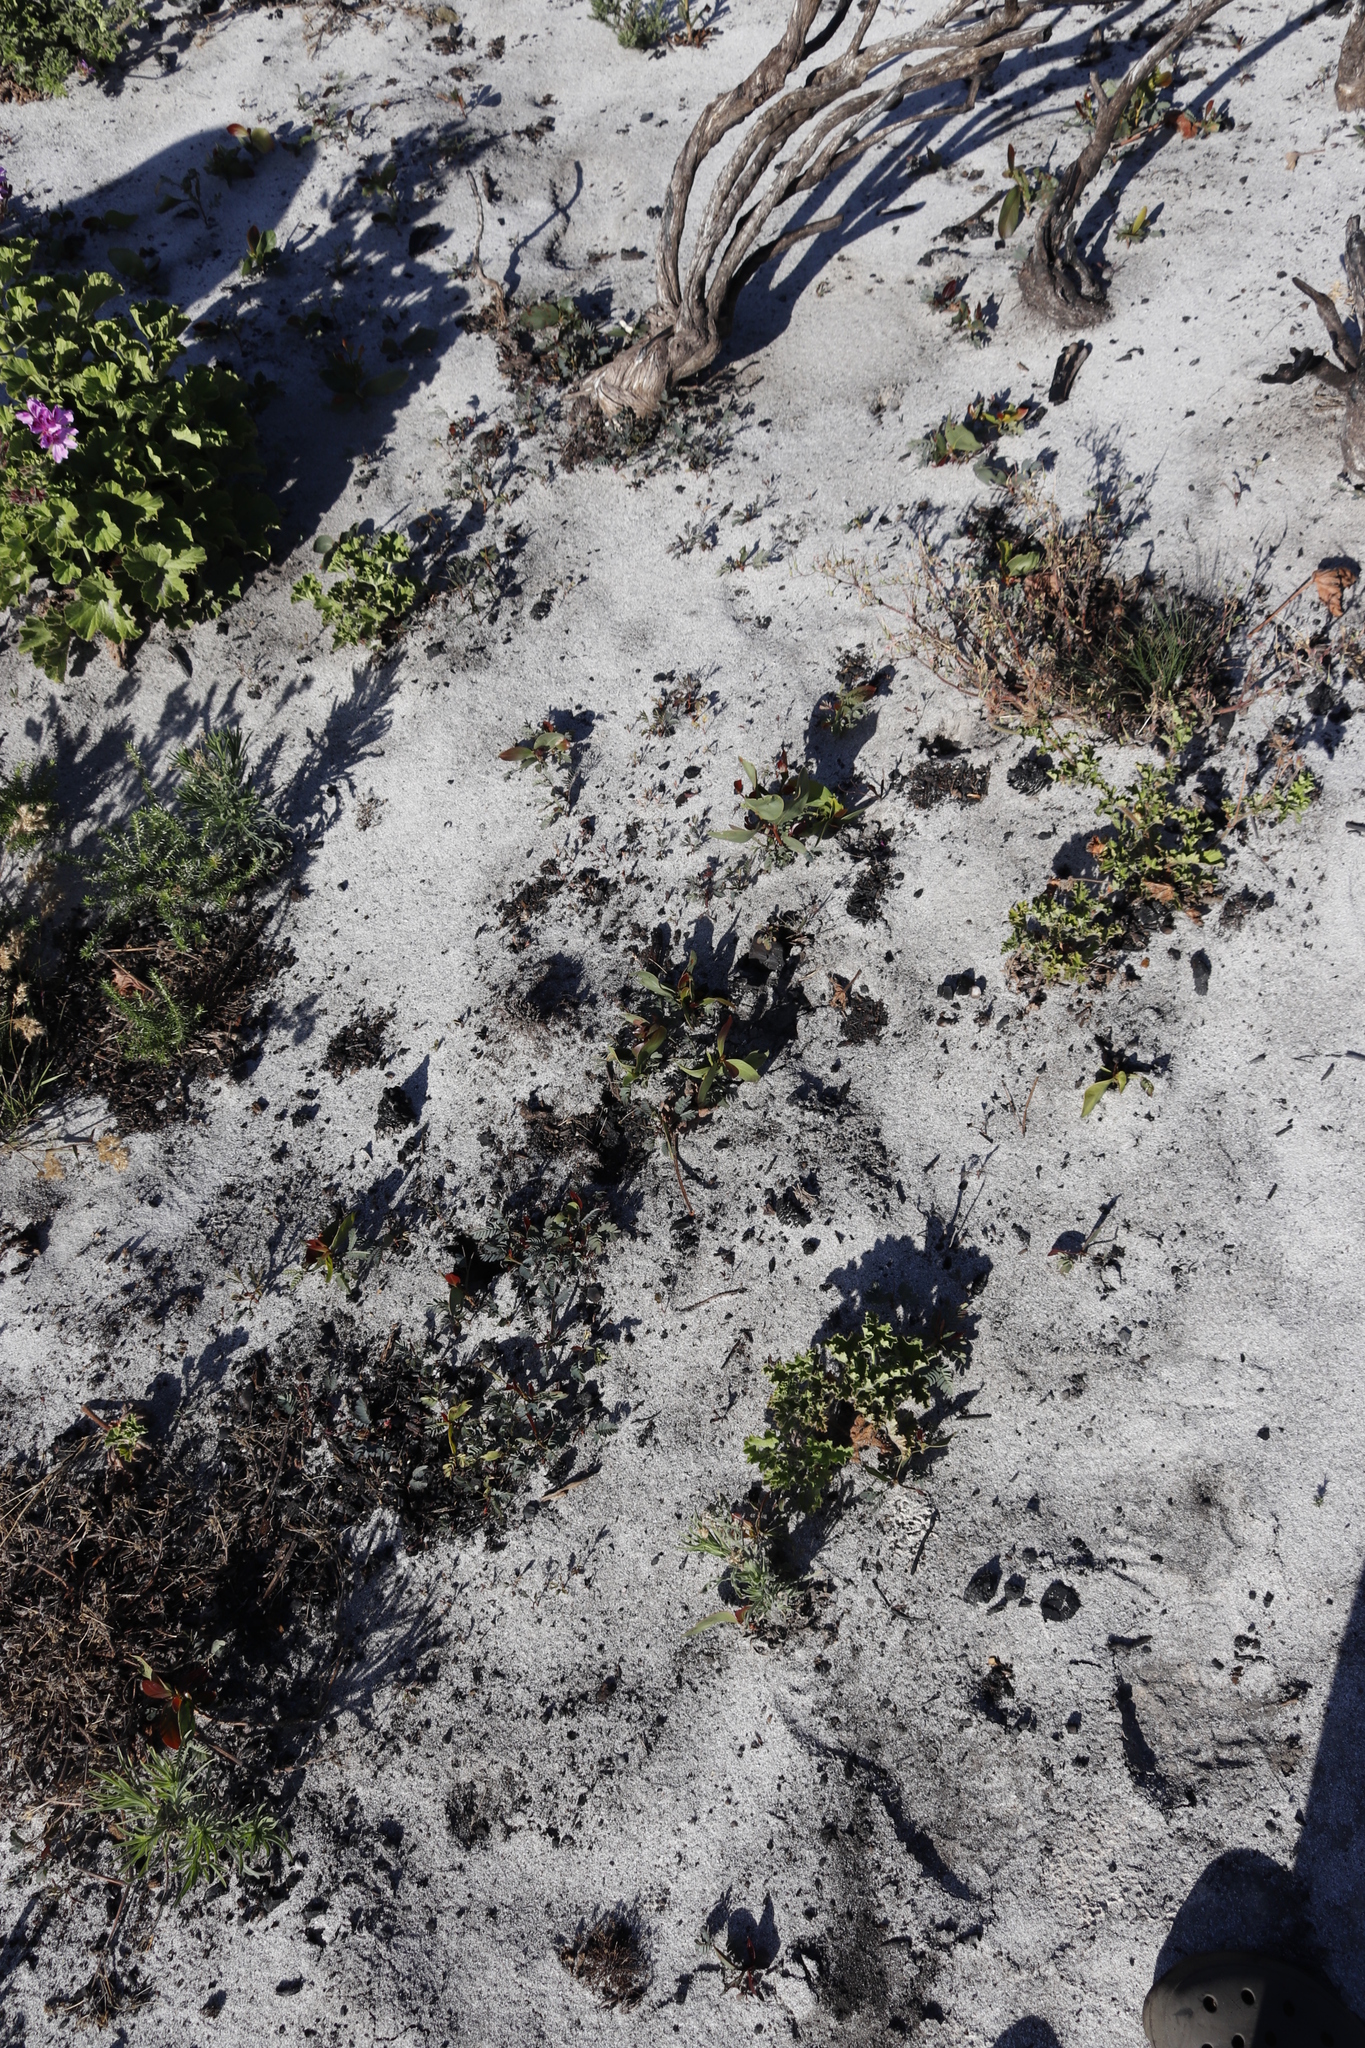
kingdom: Plantae
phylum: Tracheophyta
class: Magnoliopsida
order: Fabales
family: Fabaceae
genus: Acacia
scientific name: Acacia pycnantha
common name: Golden wattle
